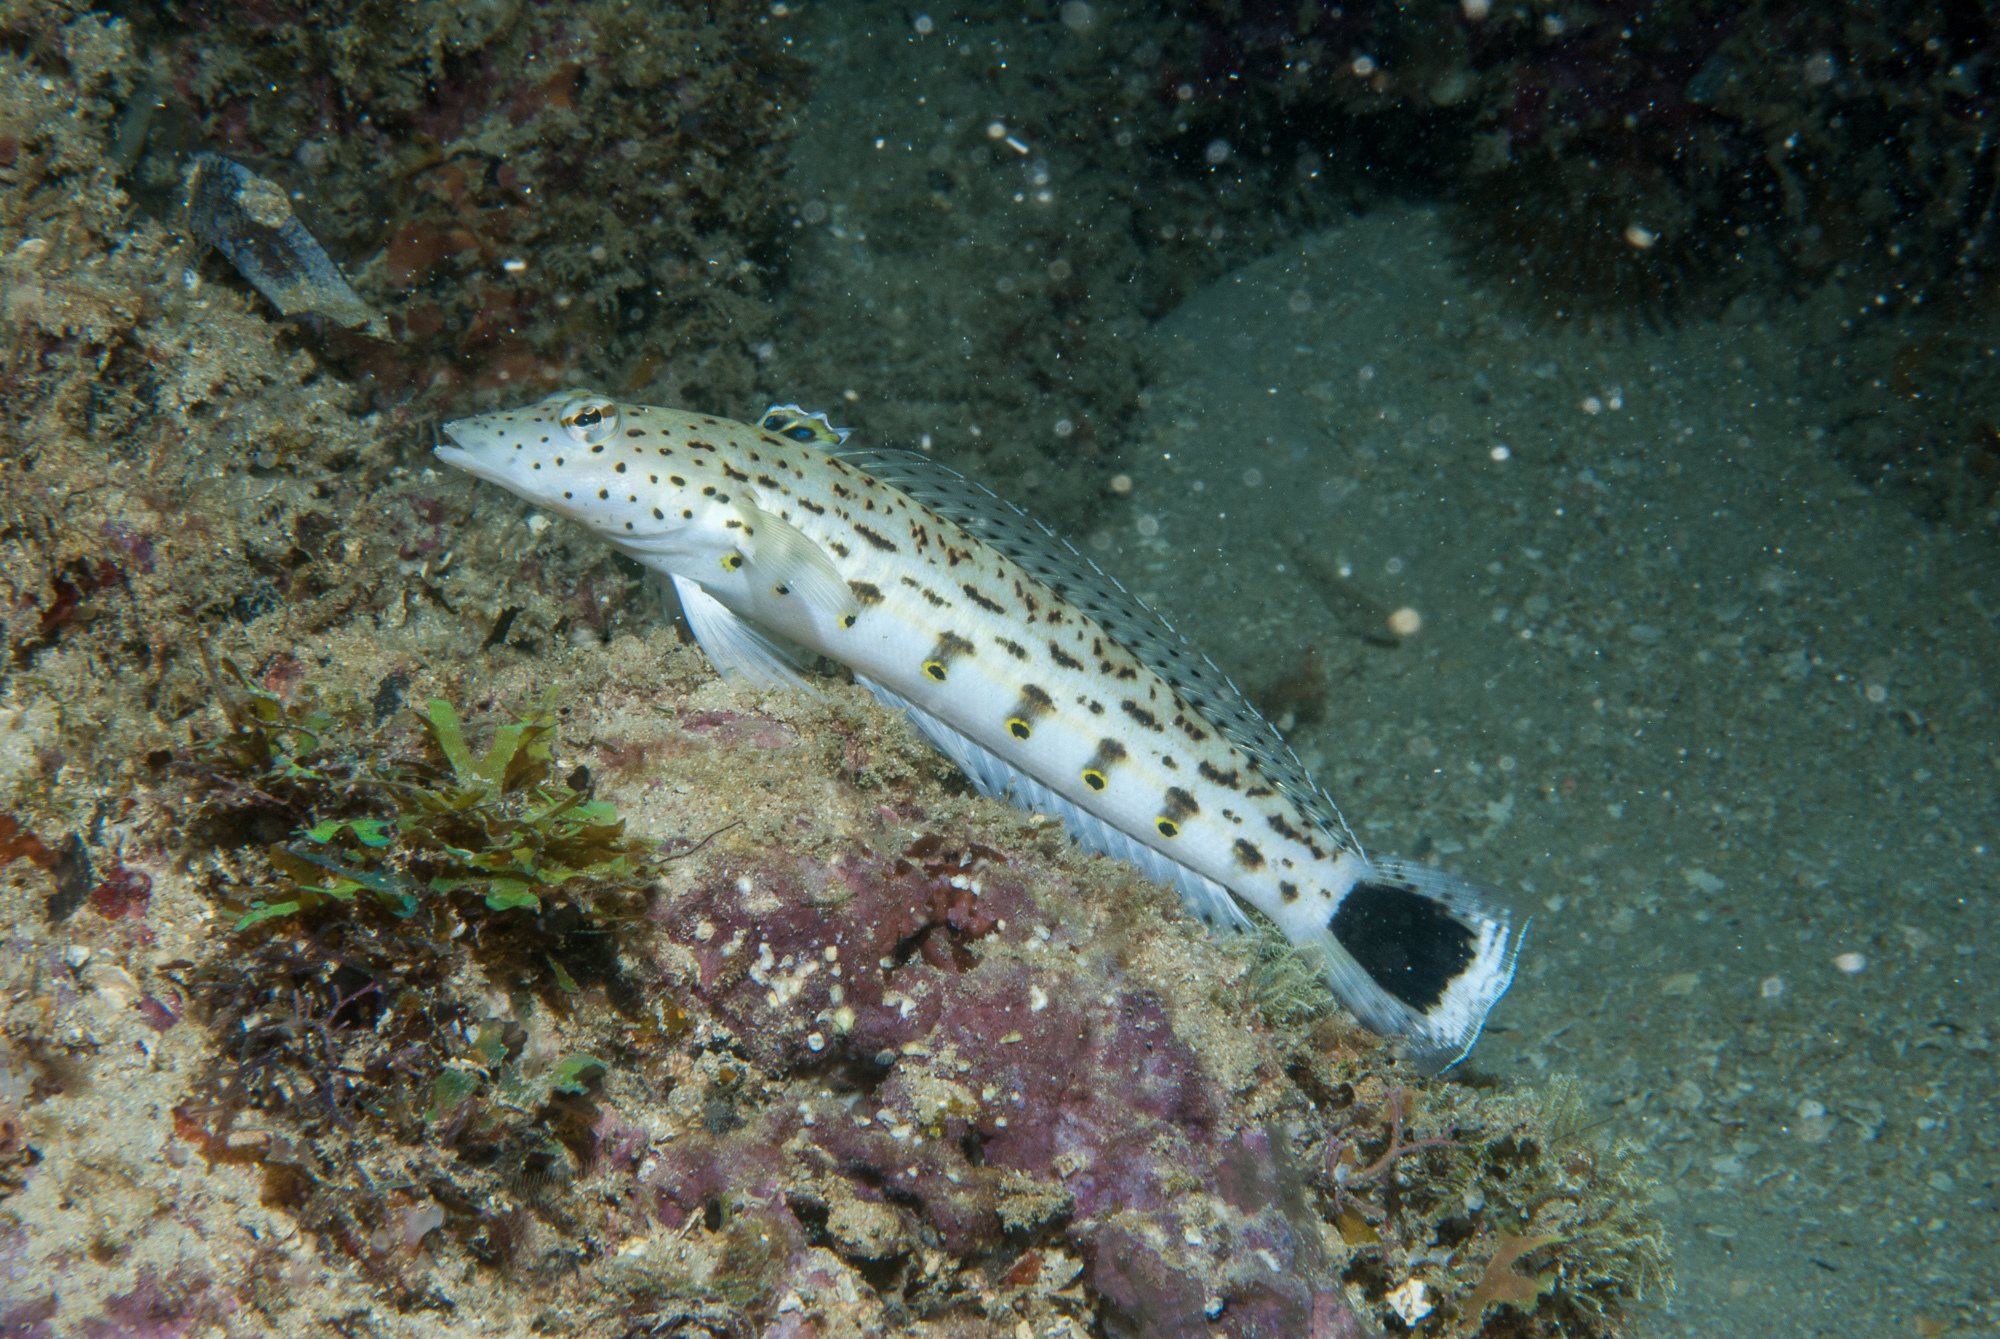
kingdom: Animalia
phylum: Chordata
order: Perciformes
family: Pinguipedidae
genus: Parapercis
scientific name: Parapercis hexophtalma
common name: Speckled sandperch
